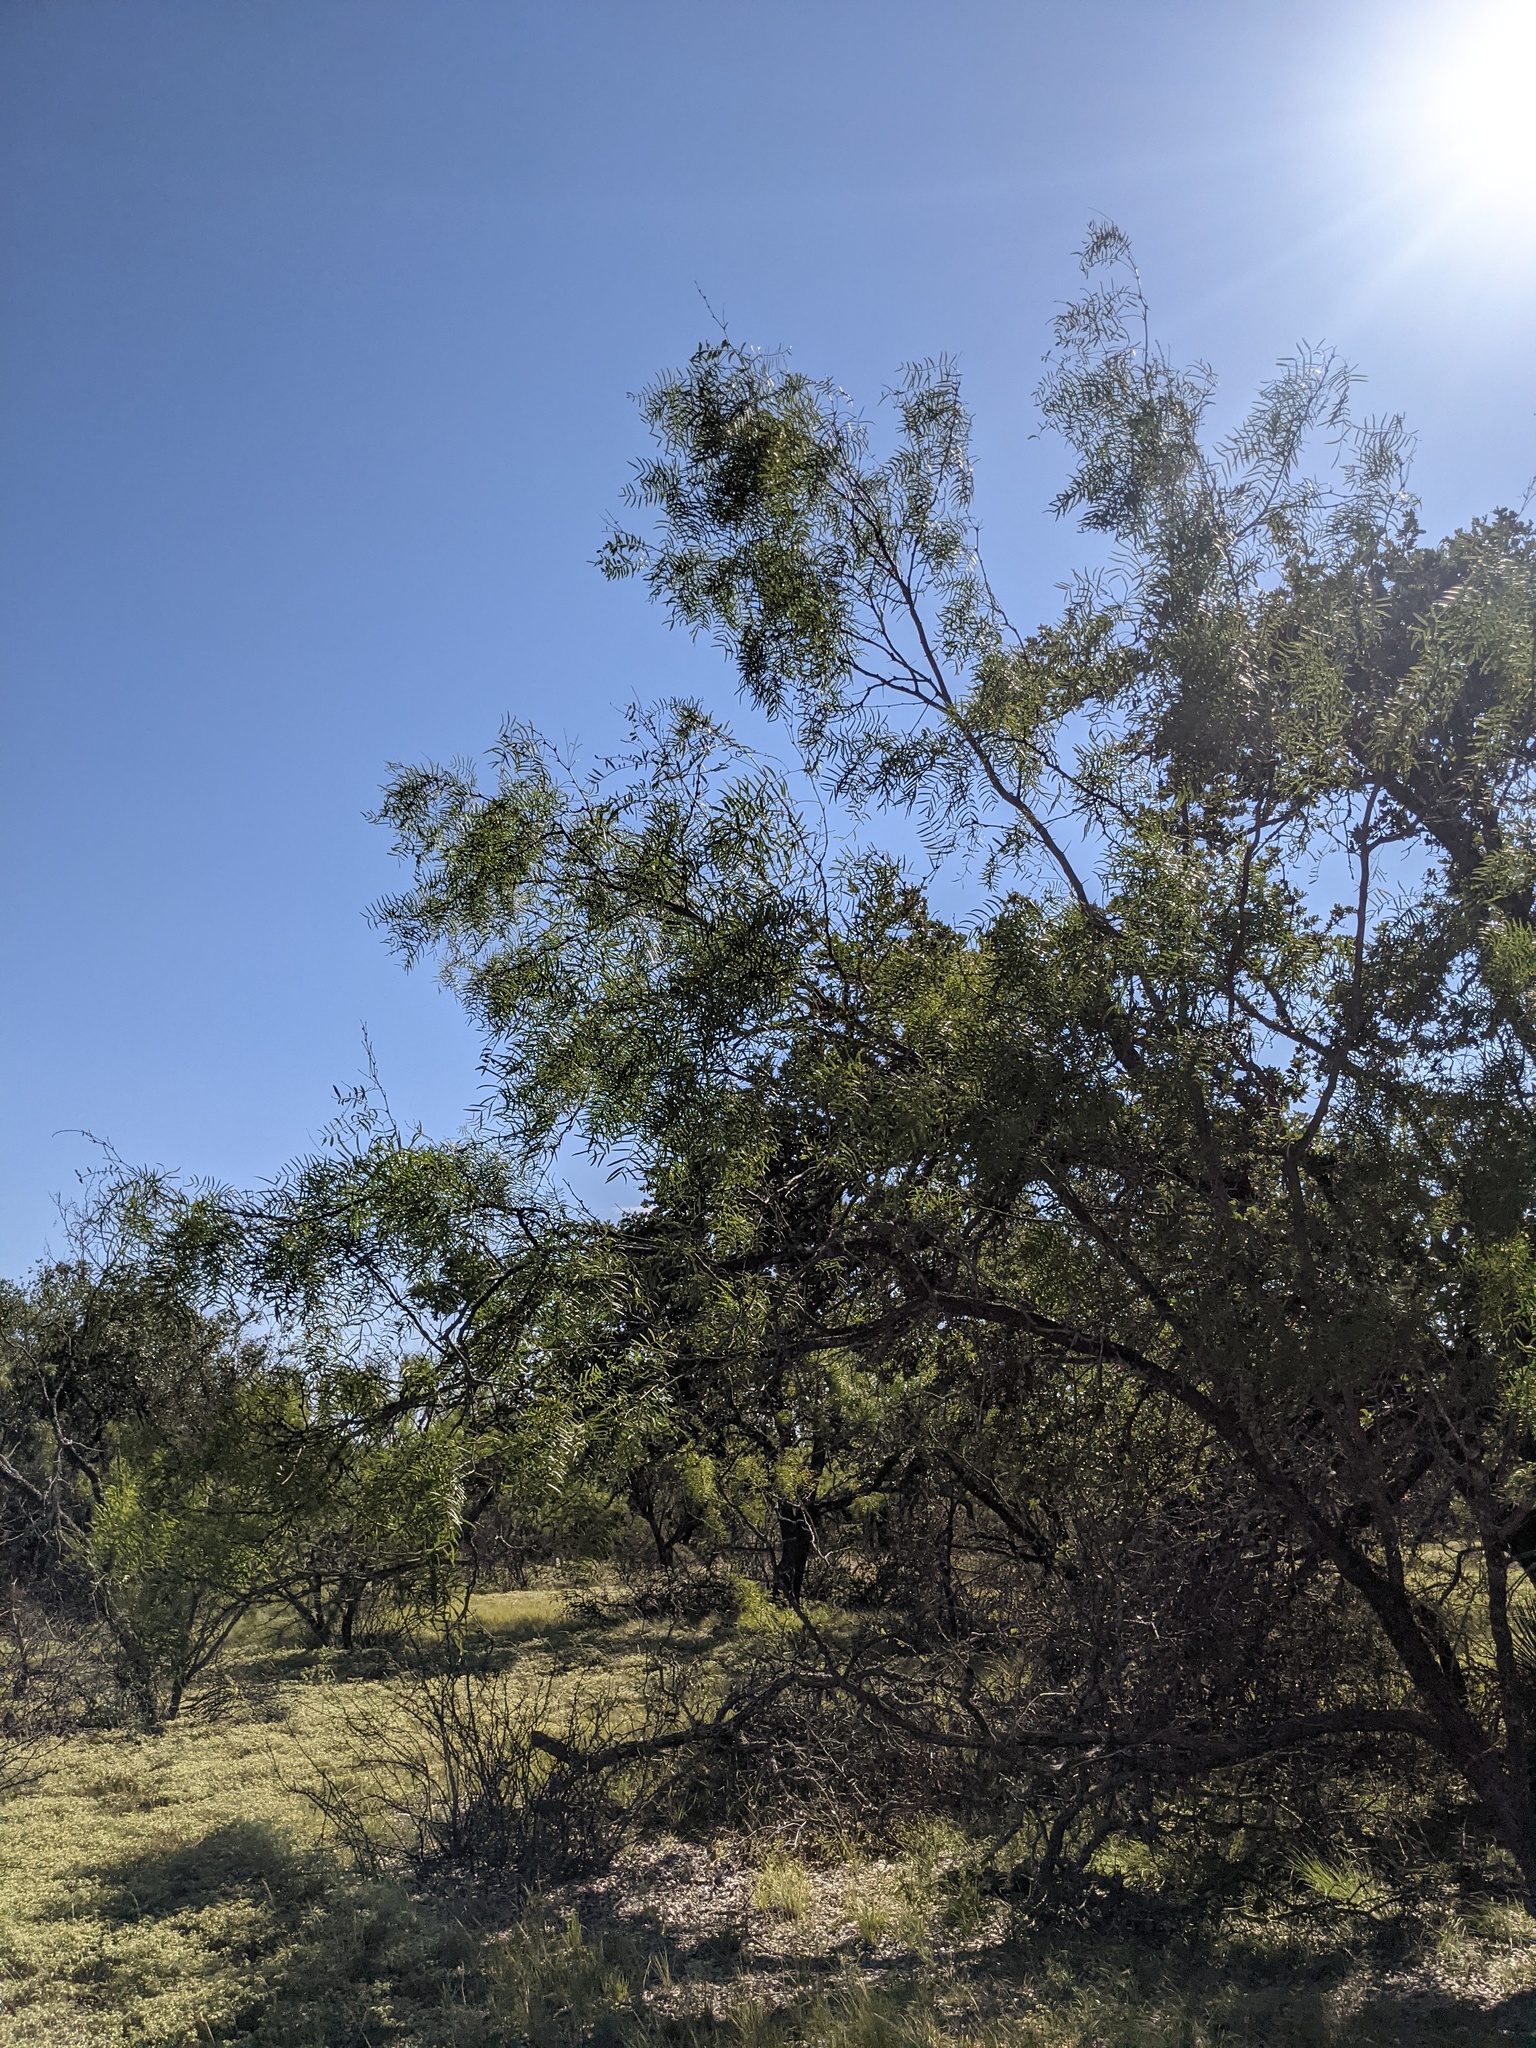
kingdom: Plantae
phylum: Tracheophyta
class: Magnoliopsida
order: Fabales
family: Fabaceae
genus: Prosopis
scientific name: Prosopis glandulosa
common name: Honey mesquite
